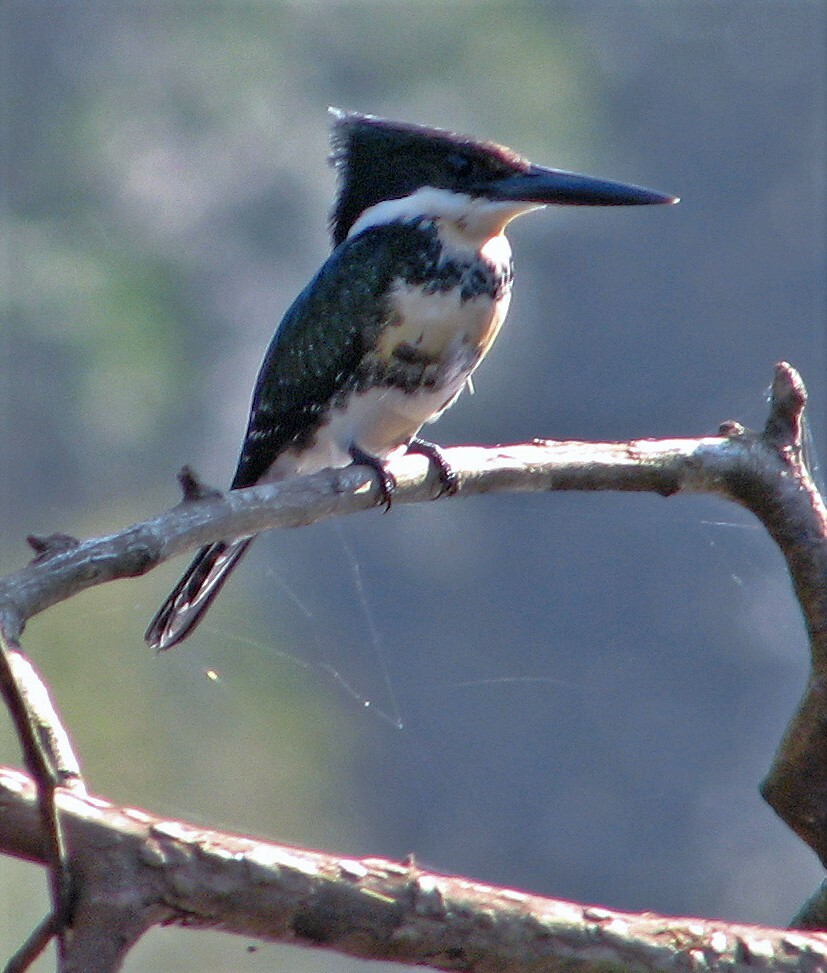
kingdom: Animalia
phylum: Chordata
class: Aves
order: Coraciiformes
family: Alcedinidae
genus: Chloroceryle
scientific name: Chloroceryle americana
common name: Green kingfisher
